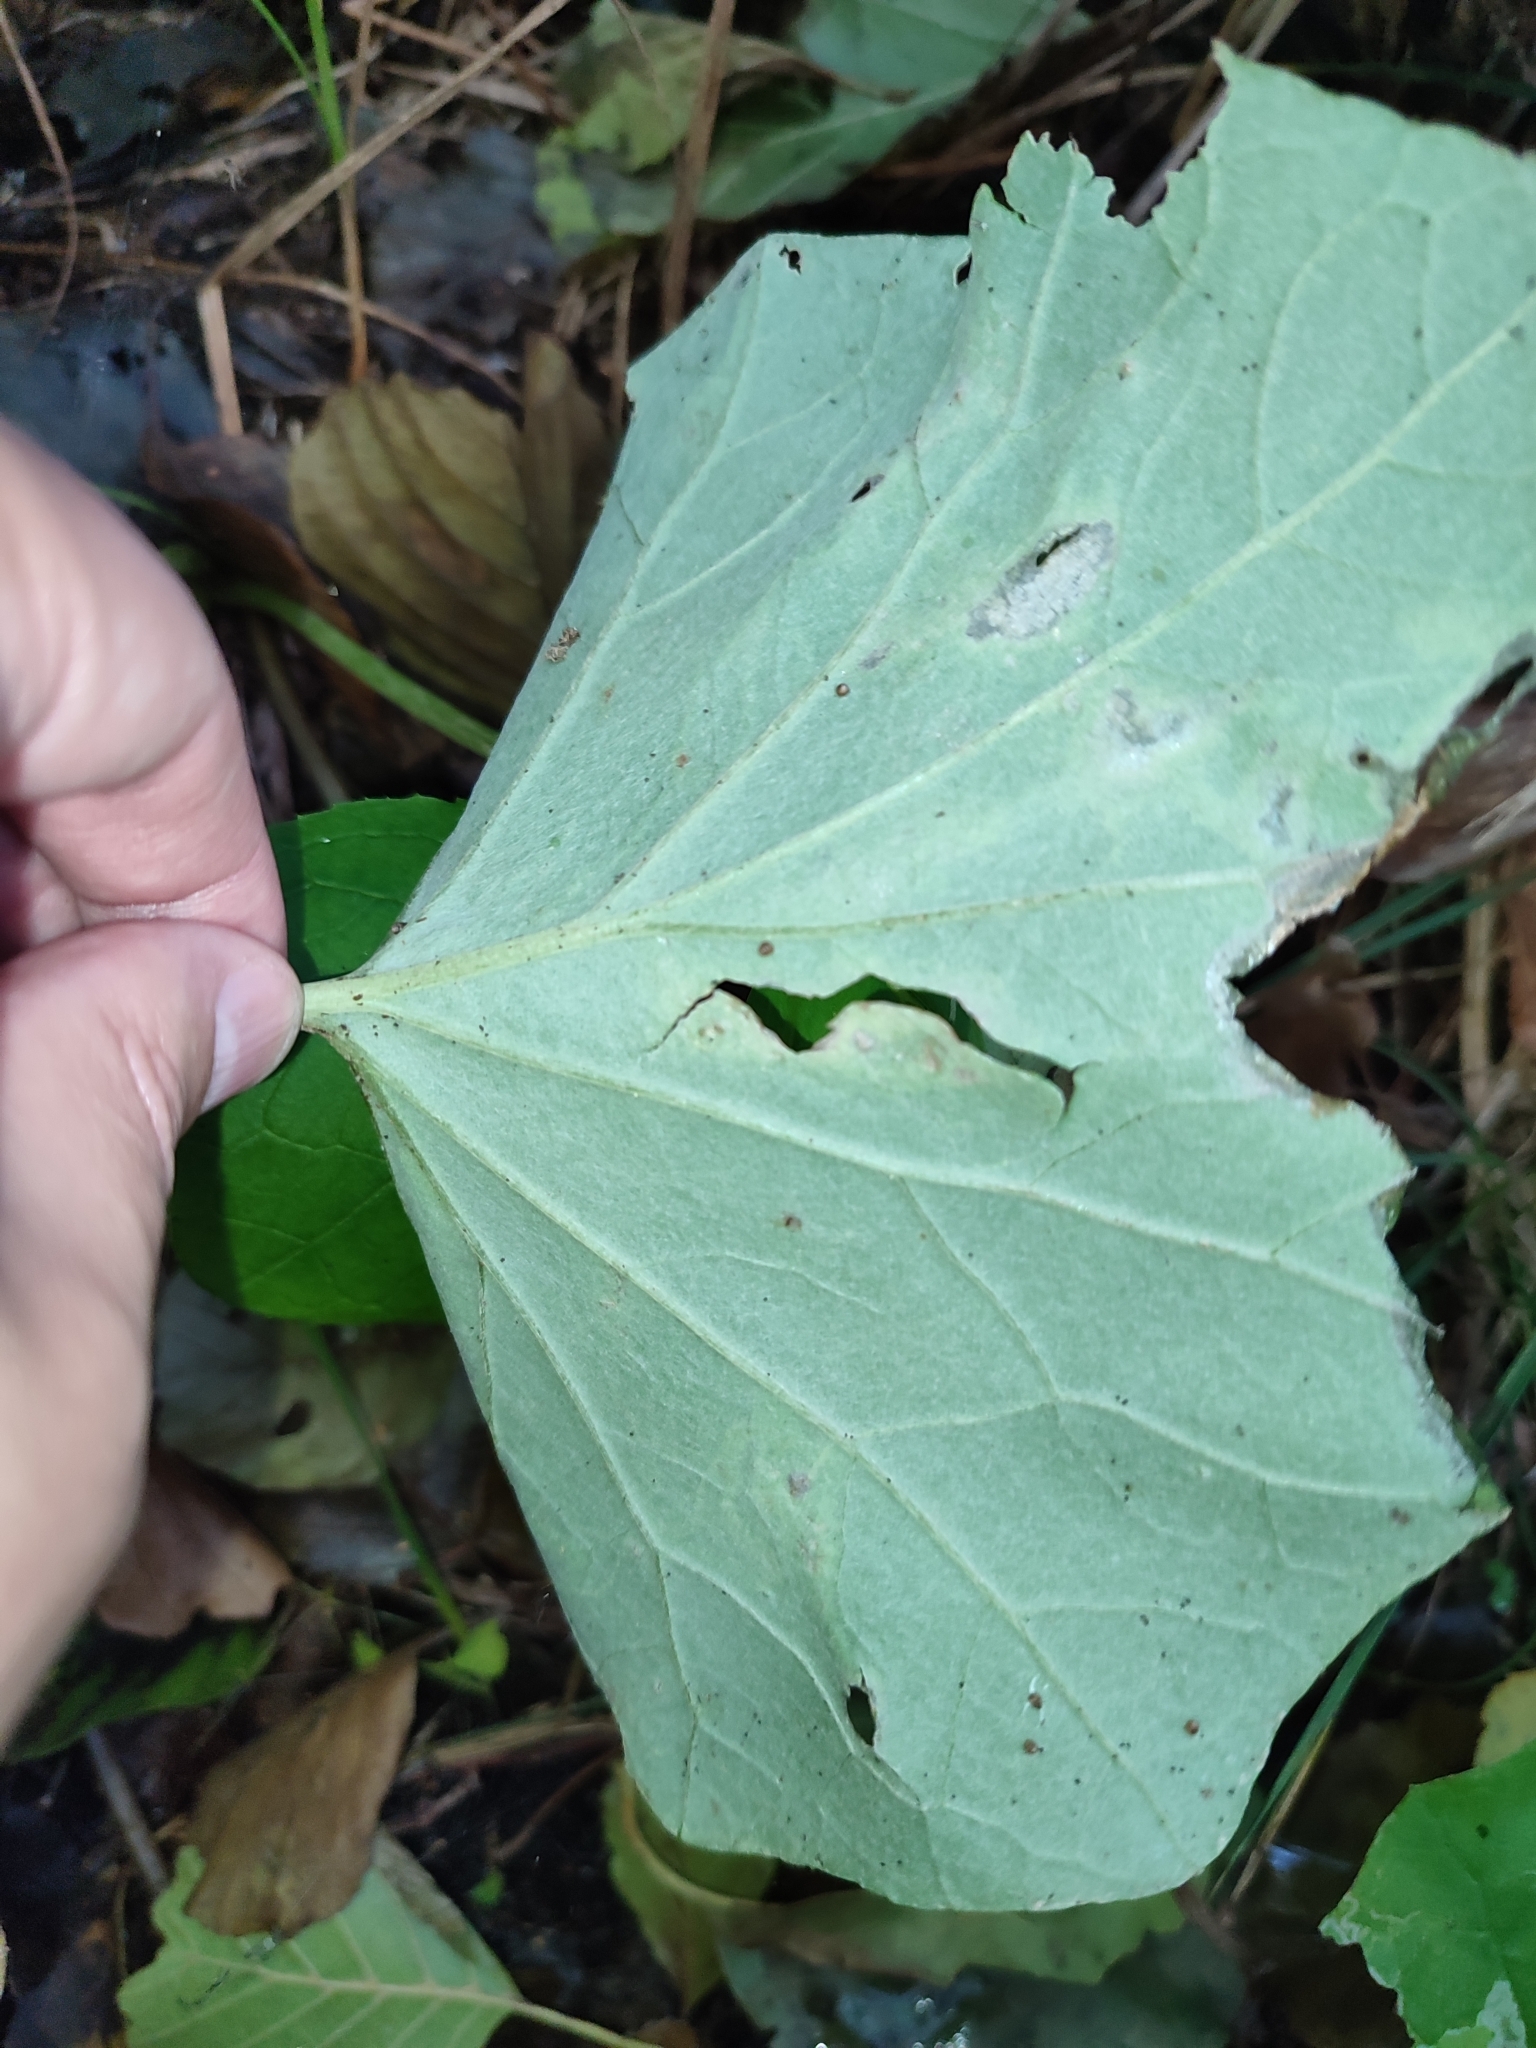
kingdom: Plantae
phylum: Tracheophyta
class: Magnoliopsida
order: Asterales
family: Asteraceae
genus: Tussilago
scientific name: Tussilago farfara
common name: Coltsfoot
